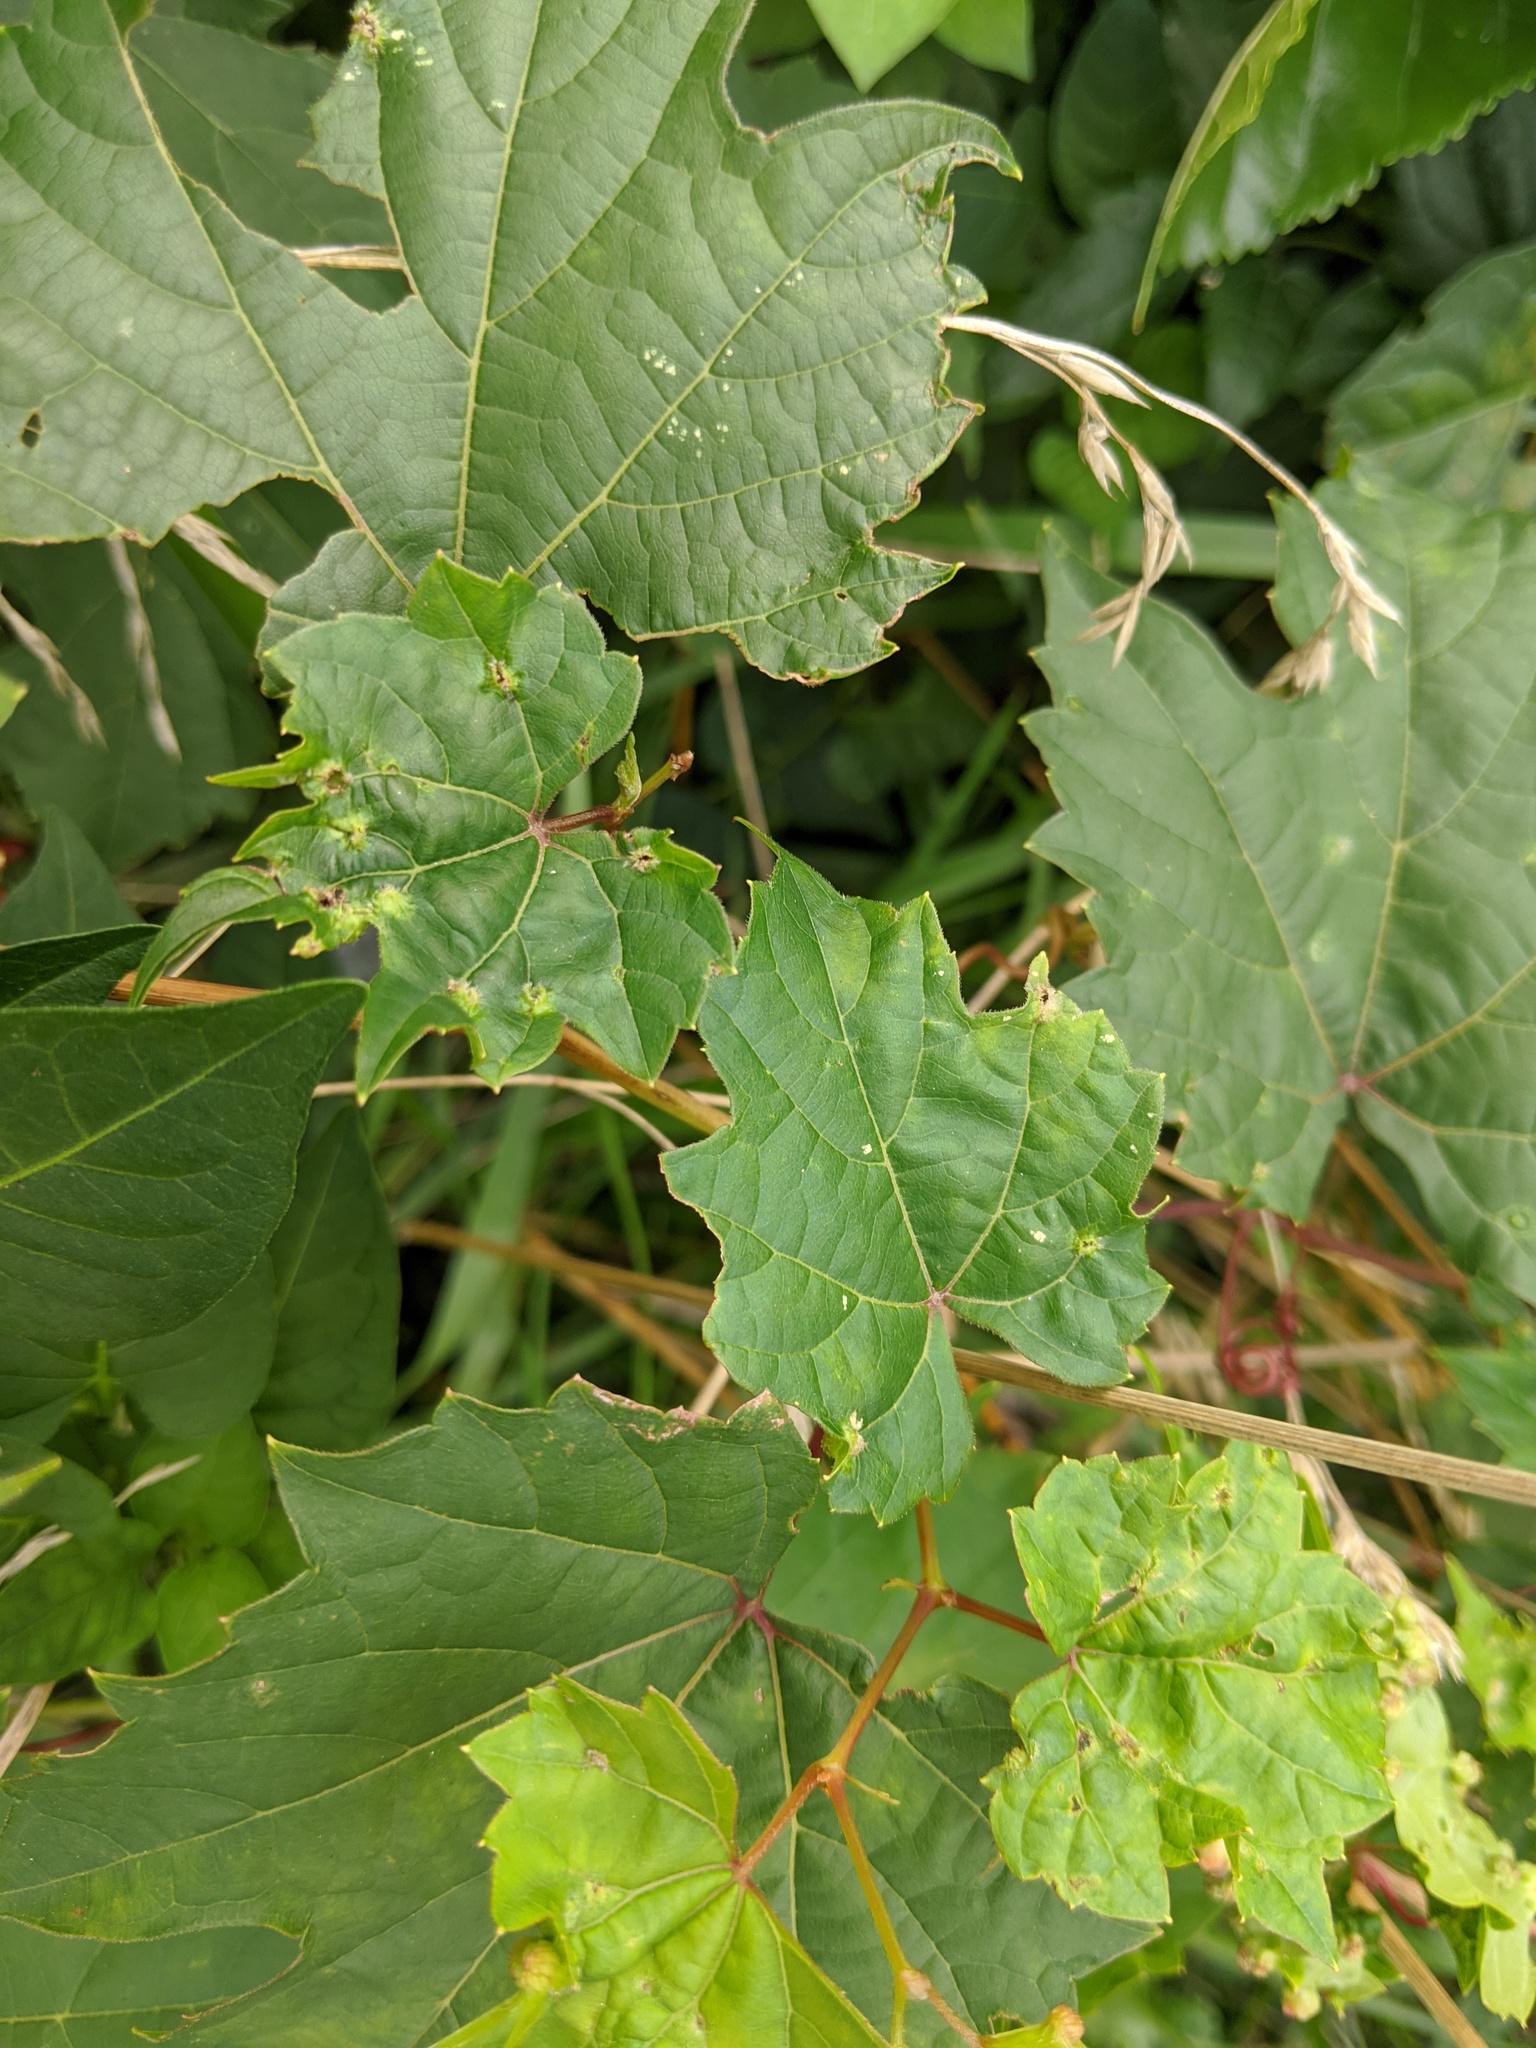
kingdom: Animalia
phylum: Arthropoda
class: Insecta
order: Hemiptera
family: Phylloxeridae
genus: Daktulosphaira
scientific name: Daktulosphaira vitifoliae
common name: Grape phylloxera
